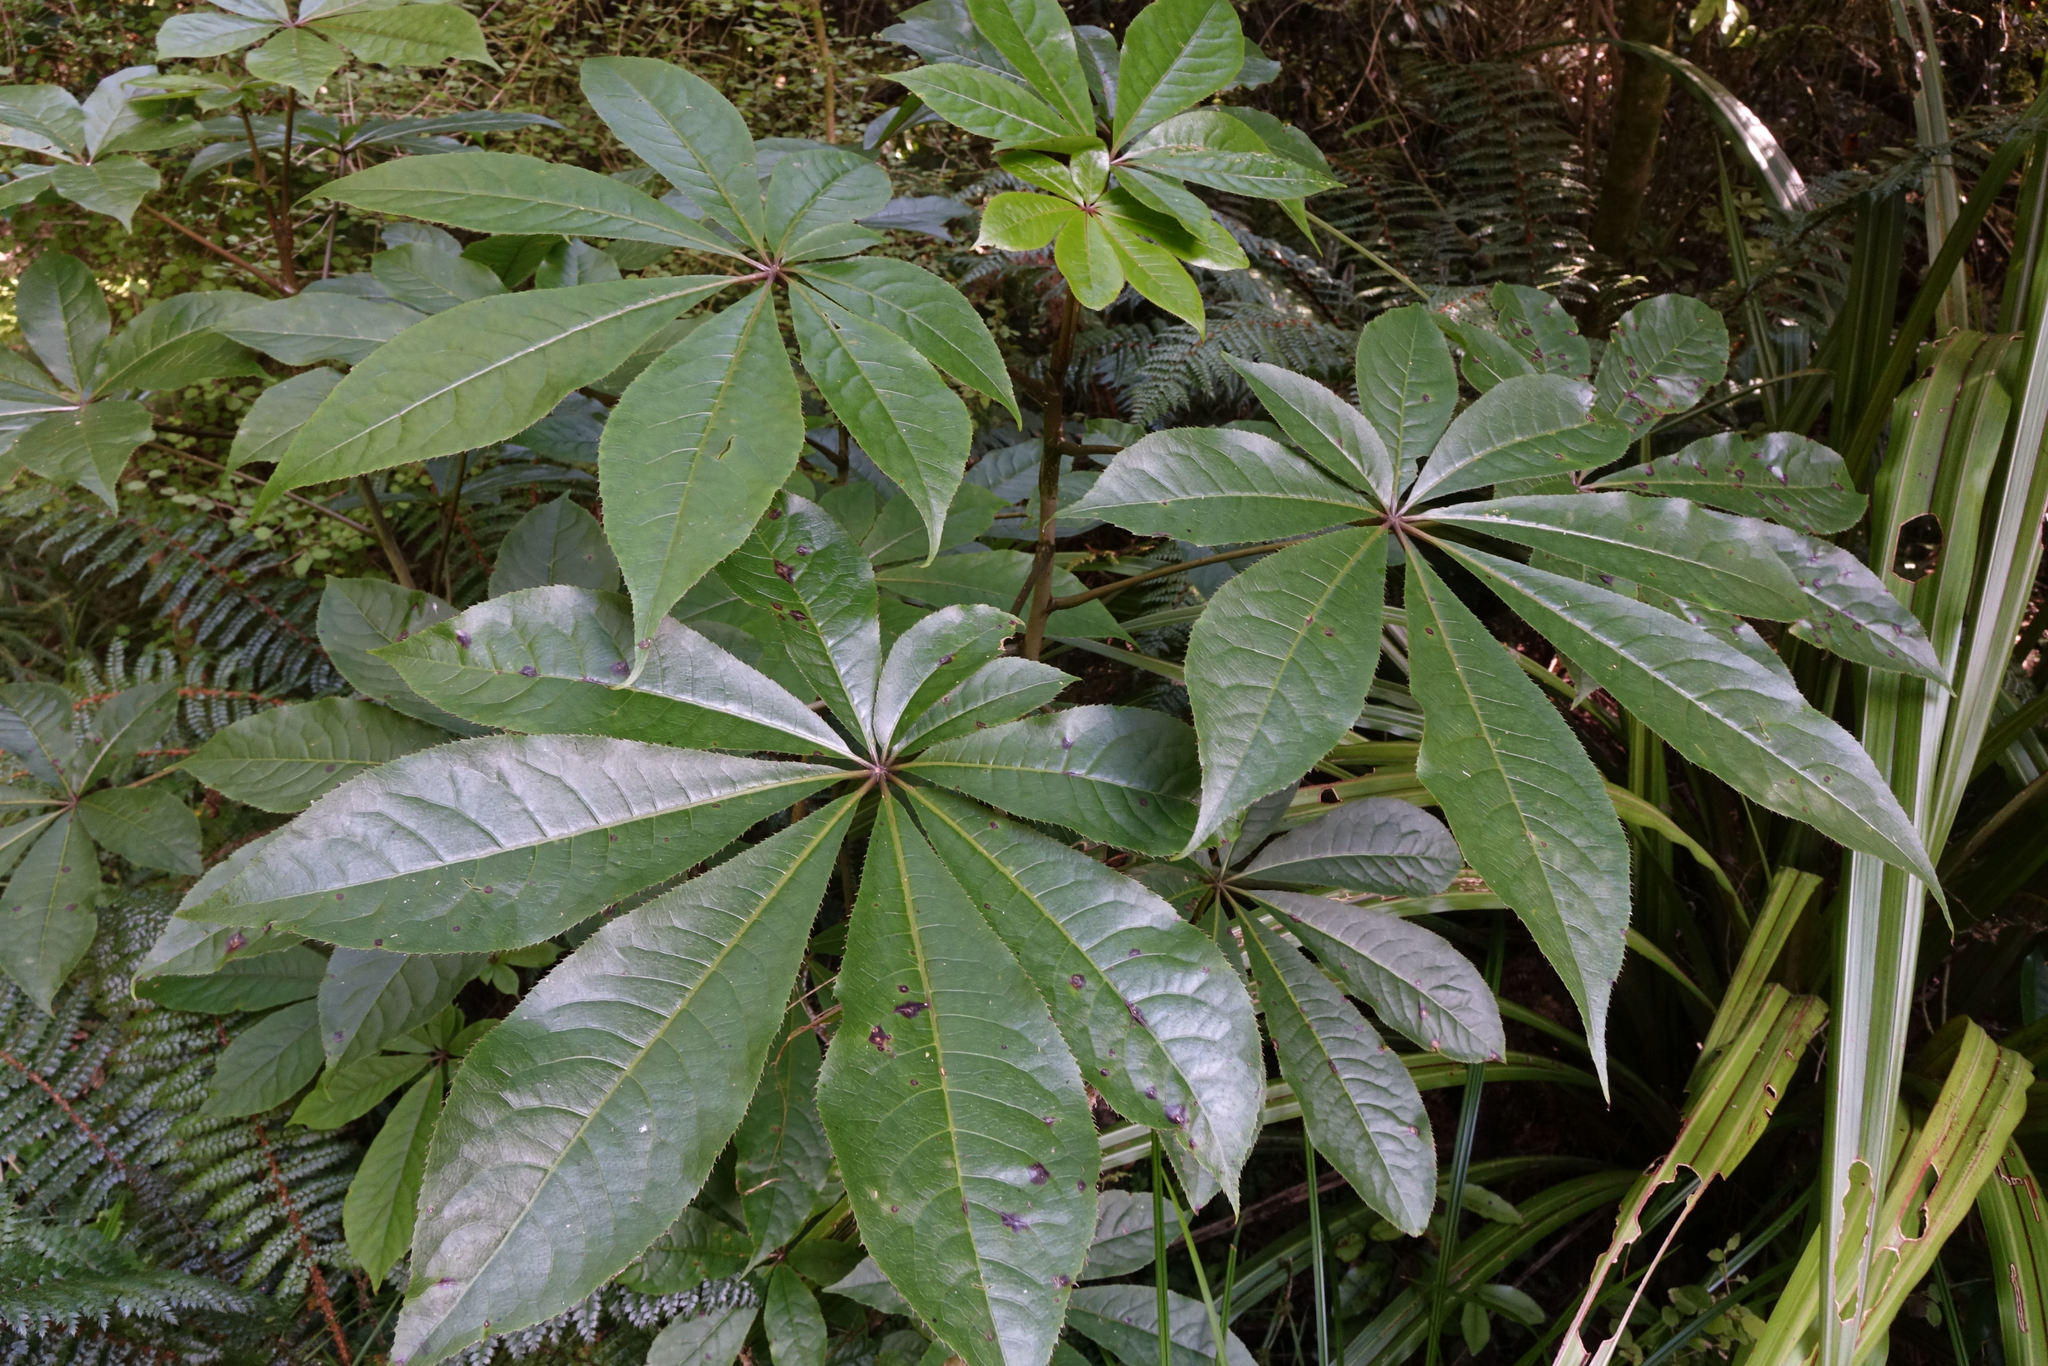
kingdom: Plantae
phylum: Tracheophyta
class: Magnoliopsida
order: Apiales
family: Araliaceae
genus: Schefflera
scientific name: Schefflera digitata
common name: Pate
